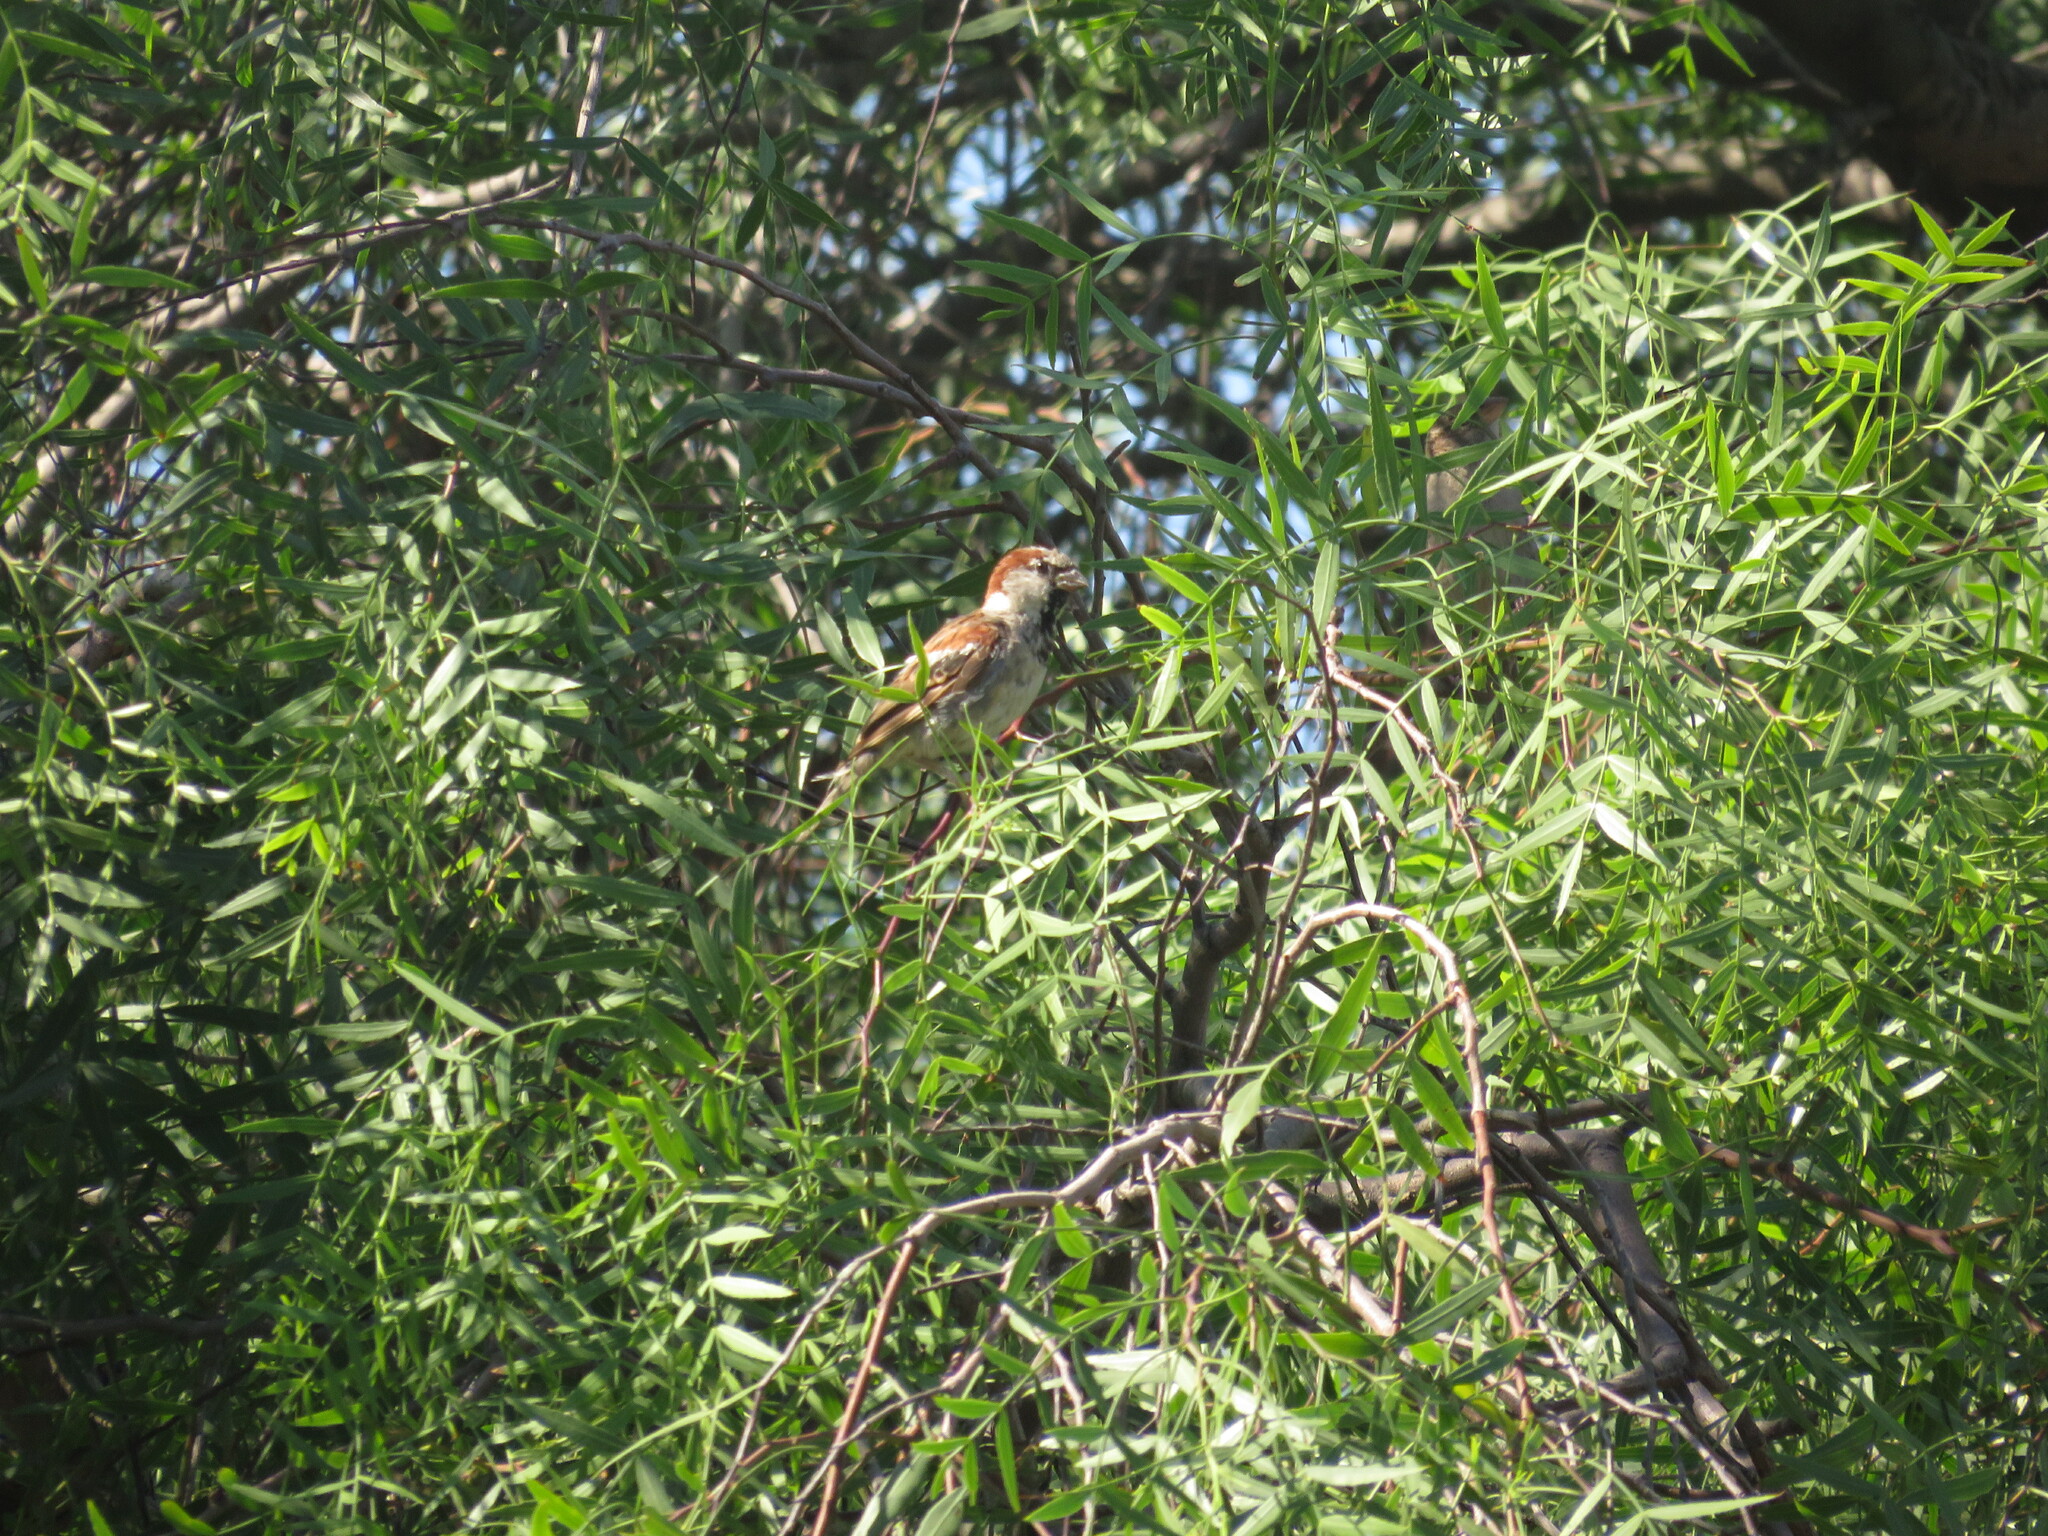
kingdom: Animalia
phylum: Chordata
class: Aves
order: Passeriformes
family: Passeridae
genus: Passer
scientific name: Passer domesticus
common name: House sparrow
